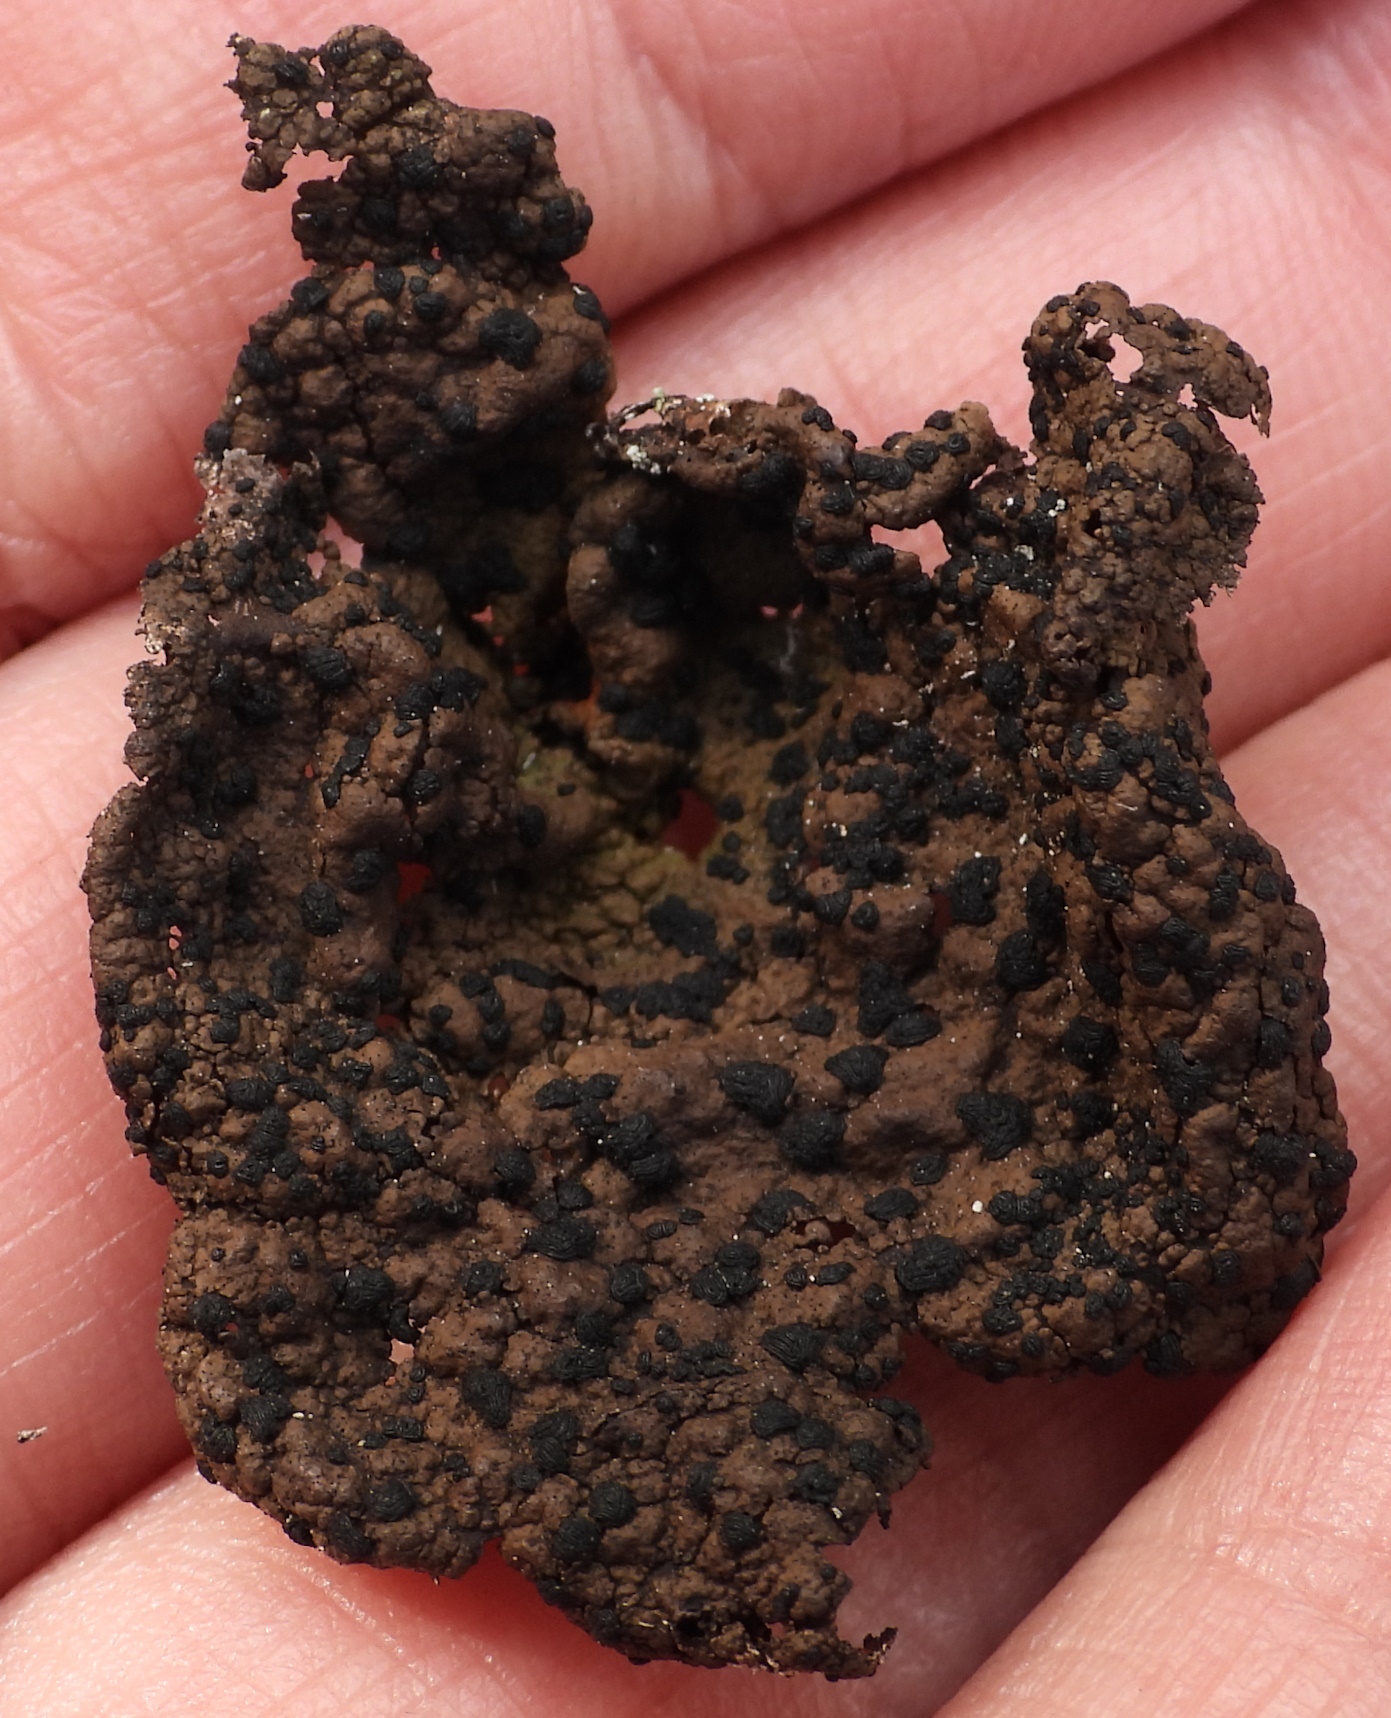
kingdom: Fungi
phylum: Ascomycota
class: Lecanoromycetes
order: Umbilicariales
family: Umbilicariaceae
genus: Umbilicaria
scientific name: Umbilicaria torrefacta
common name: Punctured rock tripe lichen
